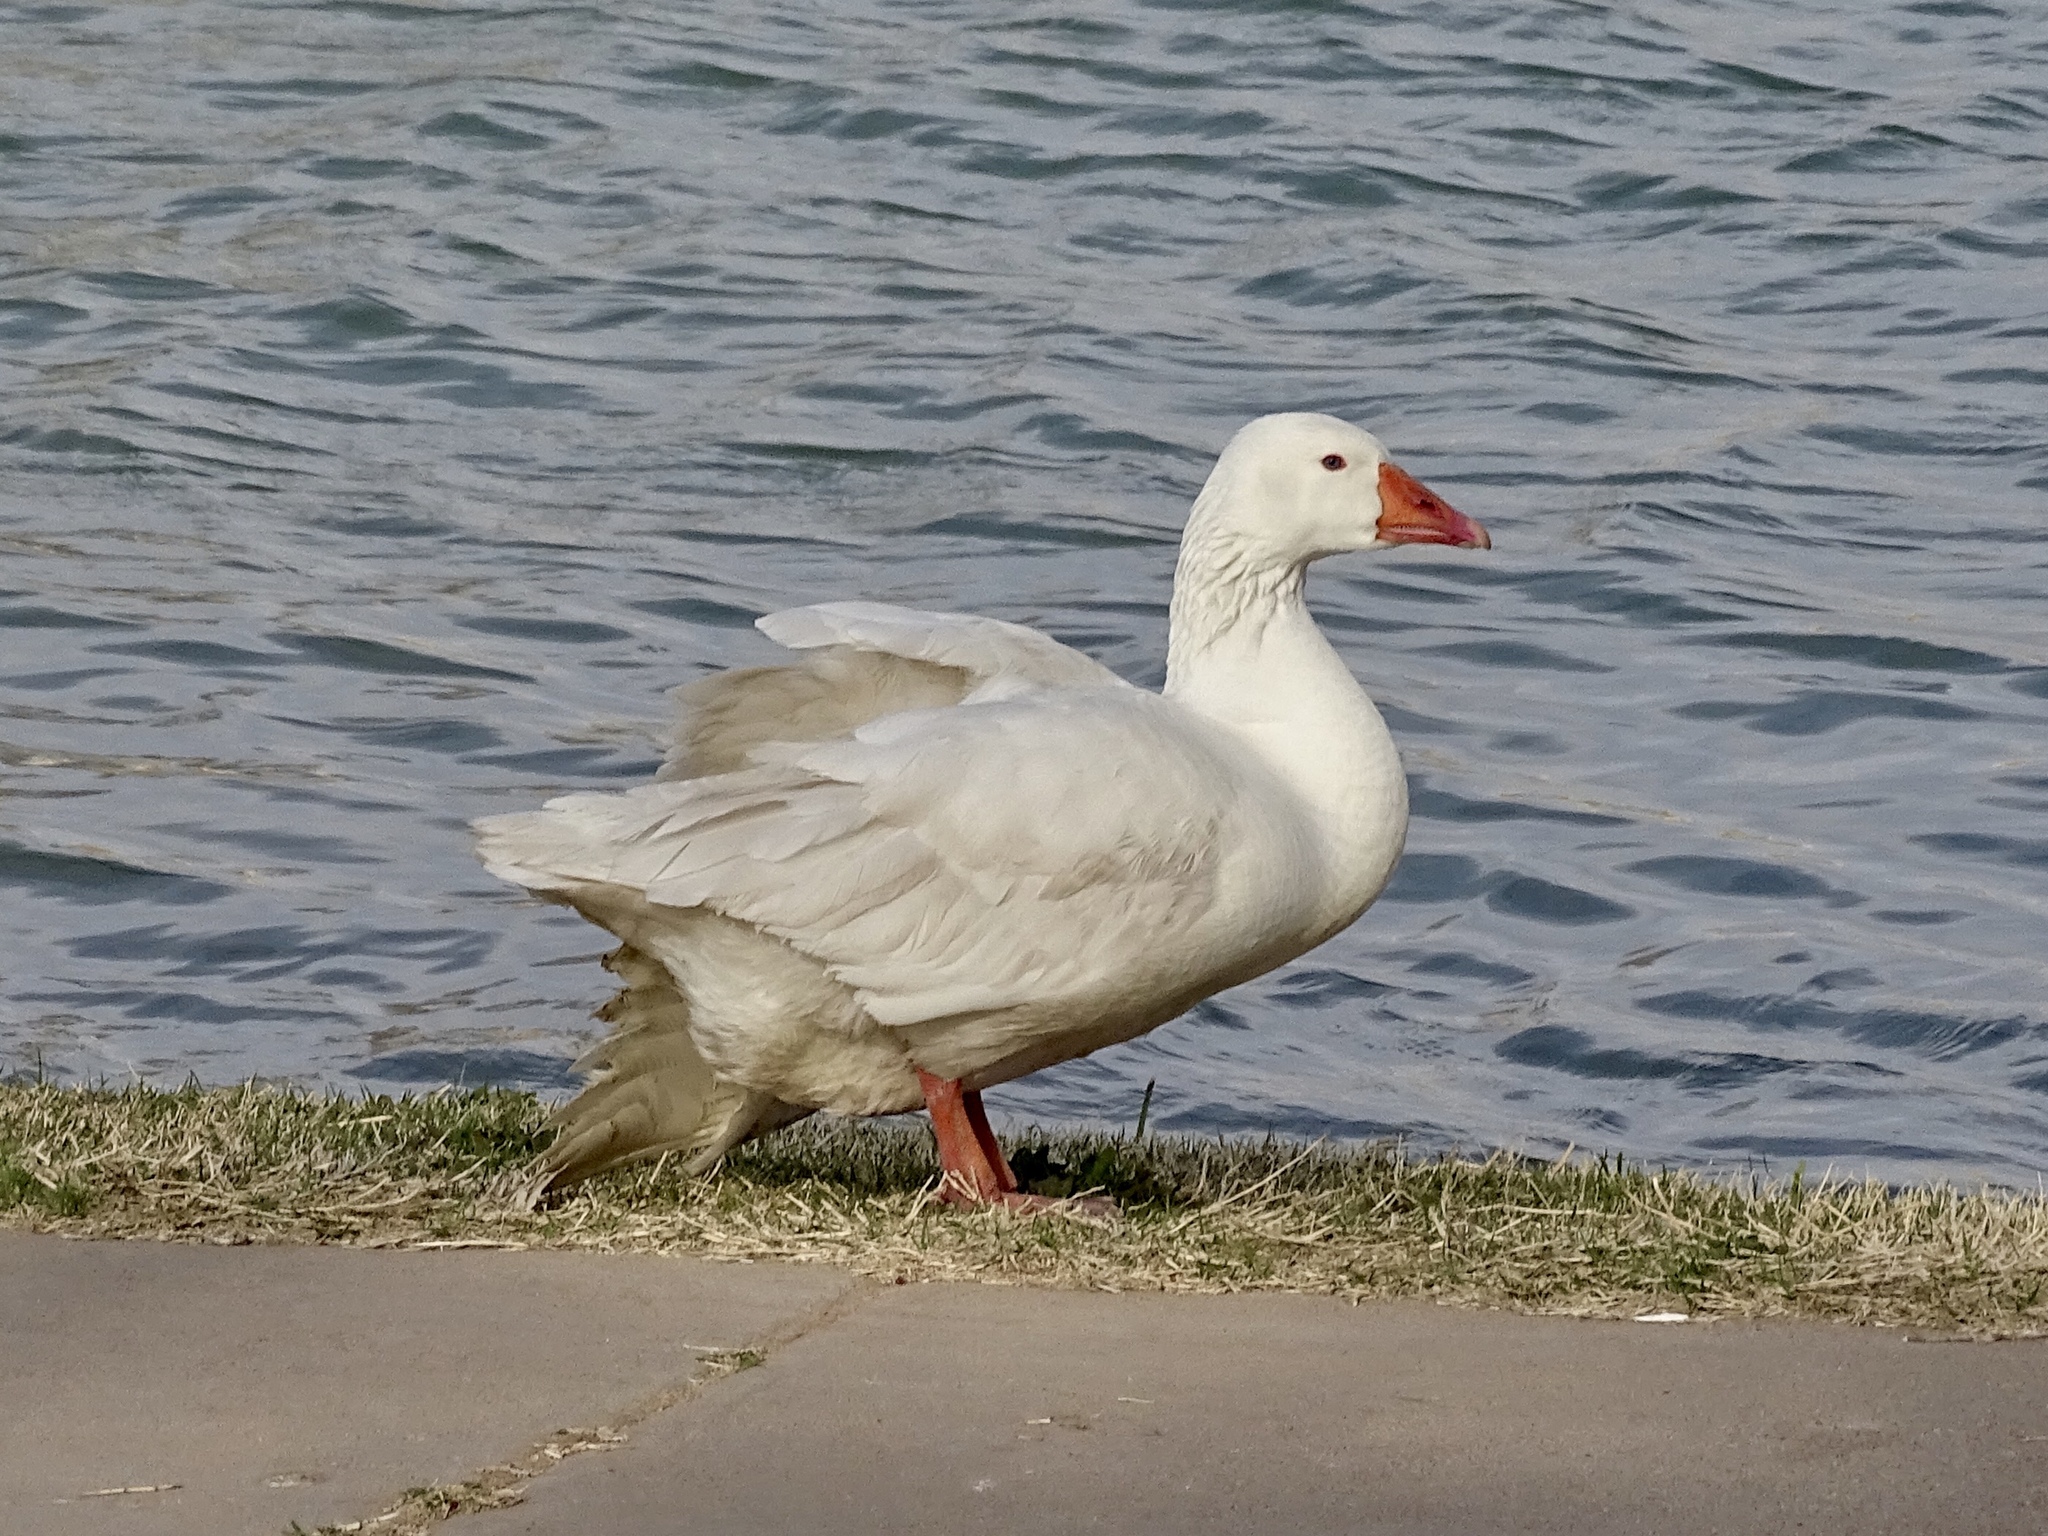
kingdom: Animalia
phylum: Chordata
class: Aves
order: Anseriformes
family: Anatidae
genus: Anser
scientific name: Anser anser
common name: Greylag goose
